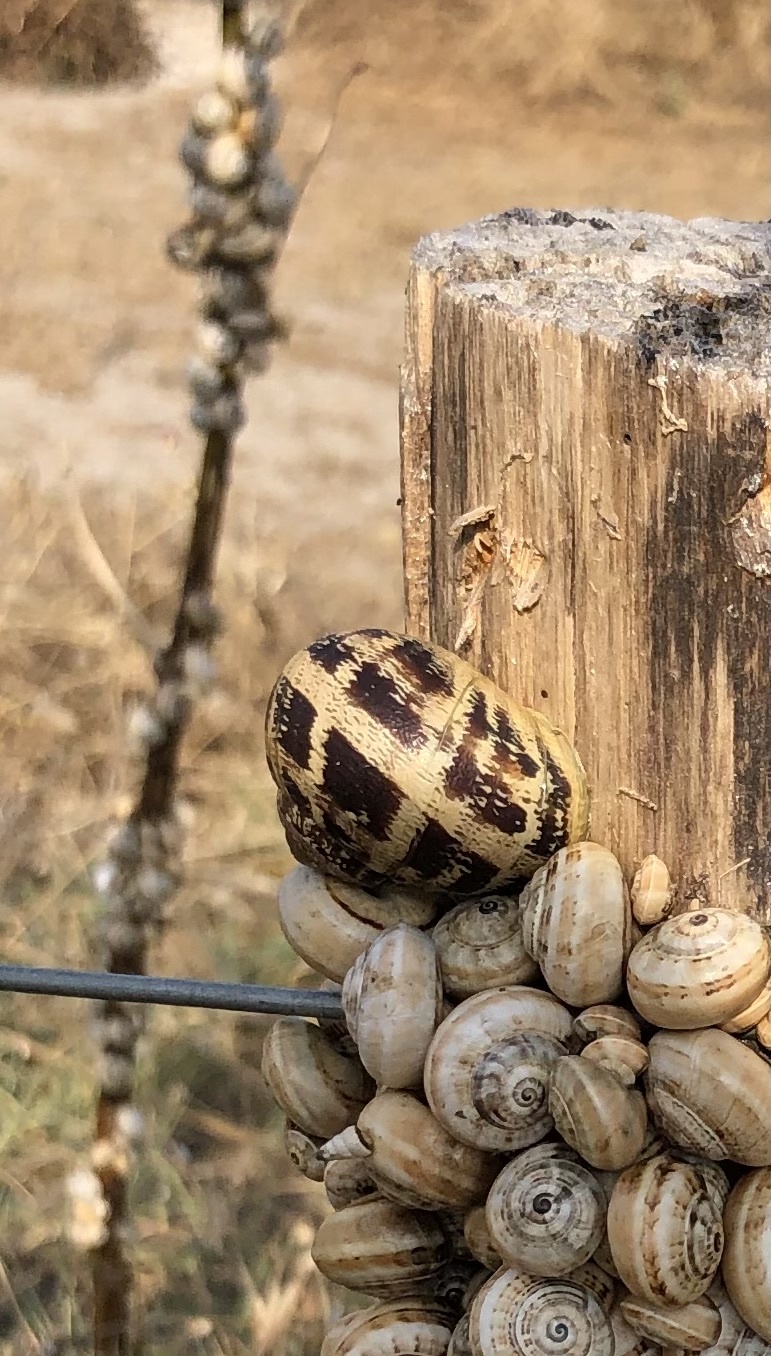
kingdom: Animalia
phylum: Mollusca
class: Gastropoda
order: Stylommatophora
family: Helicidae
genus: Cornu
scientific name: Cornu aspersum
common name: Brown garden snail
